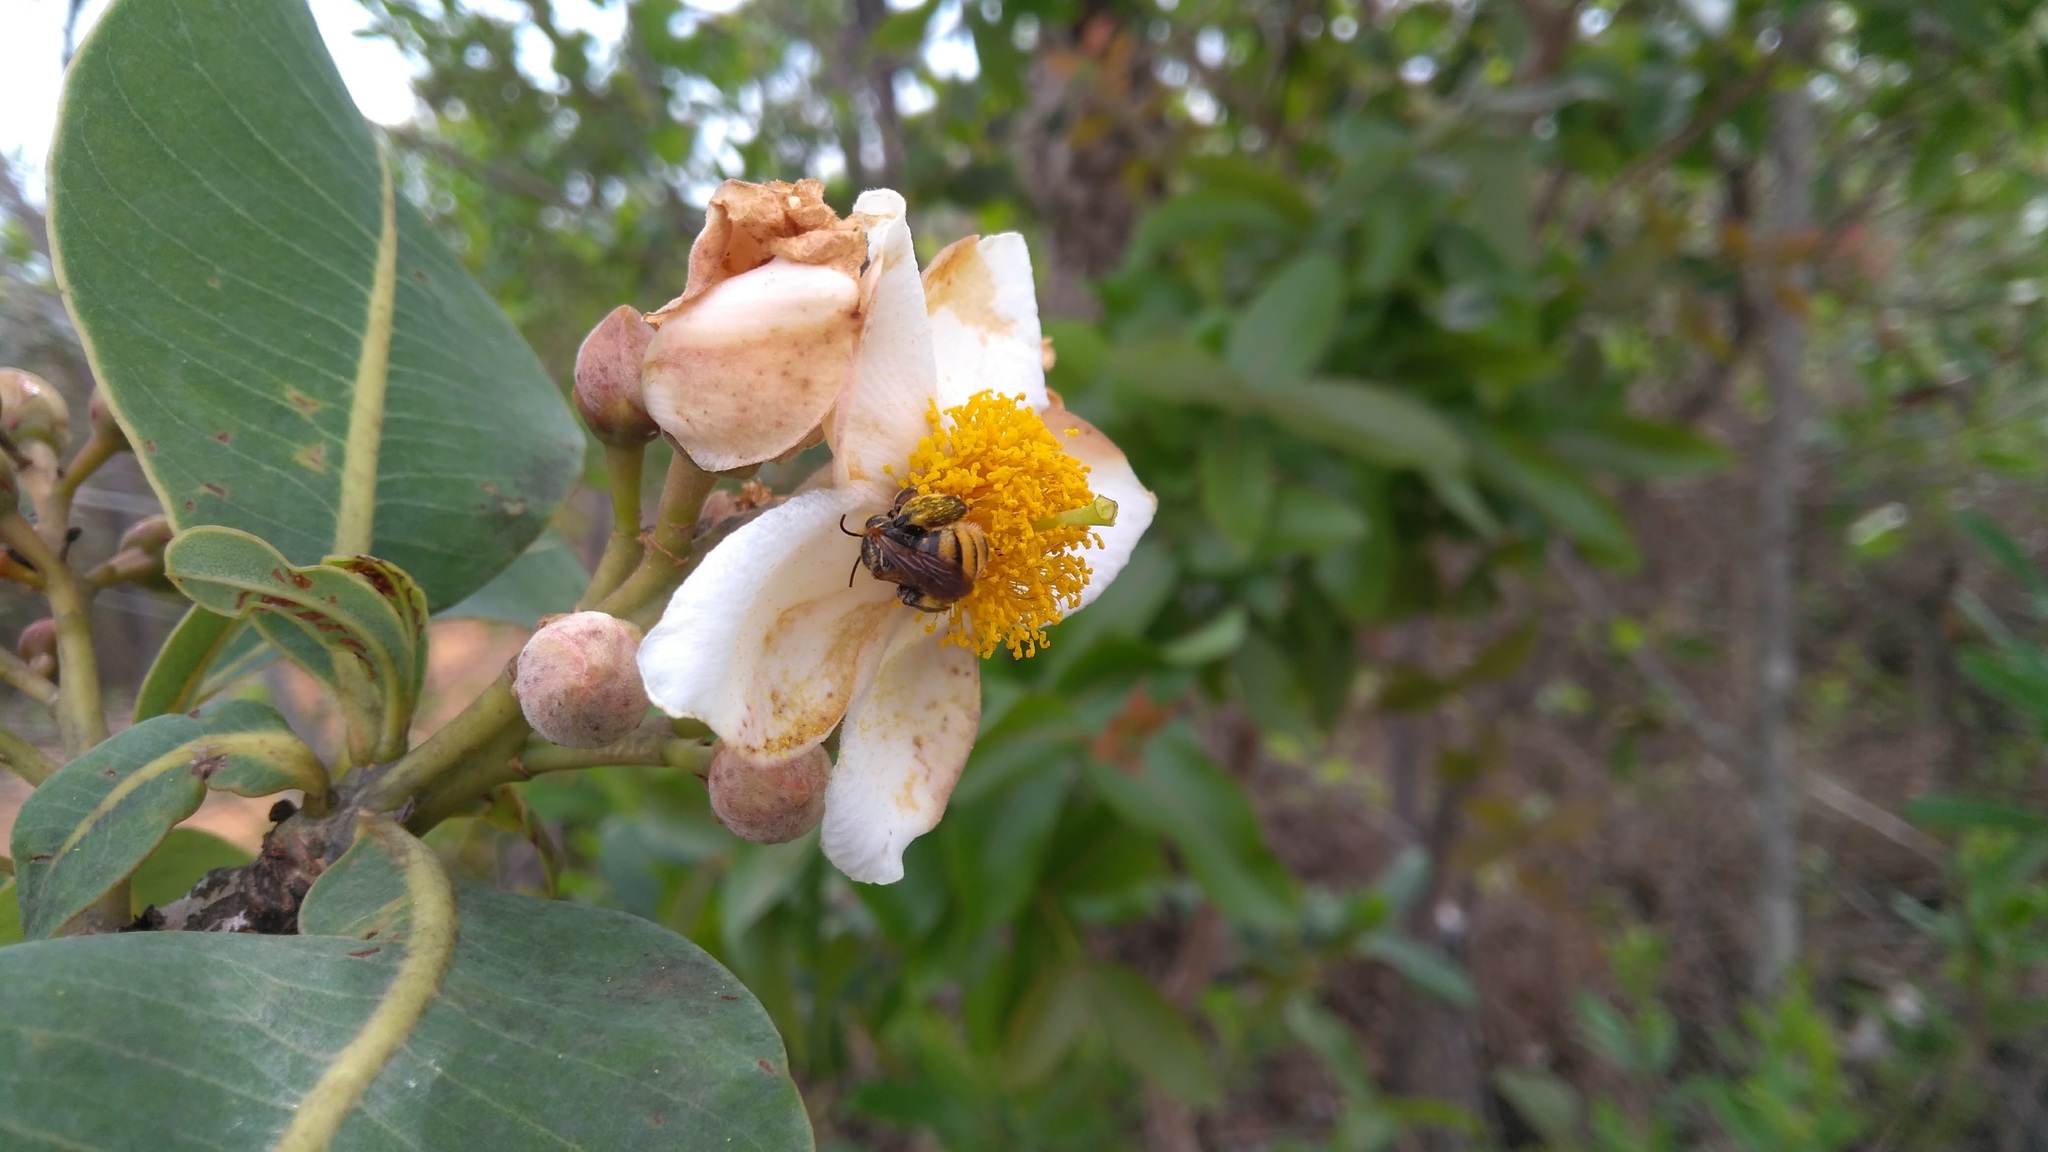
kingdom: Plantae
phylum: Tracheophyta
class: Magnoliopsida
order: Malpighiales
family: Calophyllaceae
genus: Kielmeyera
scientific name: Kielmeyera coriacea
